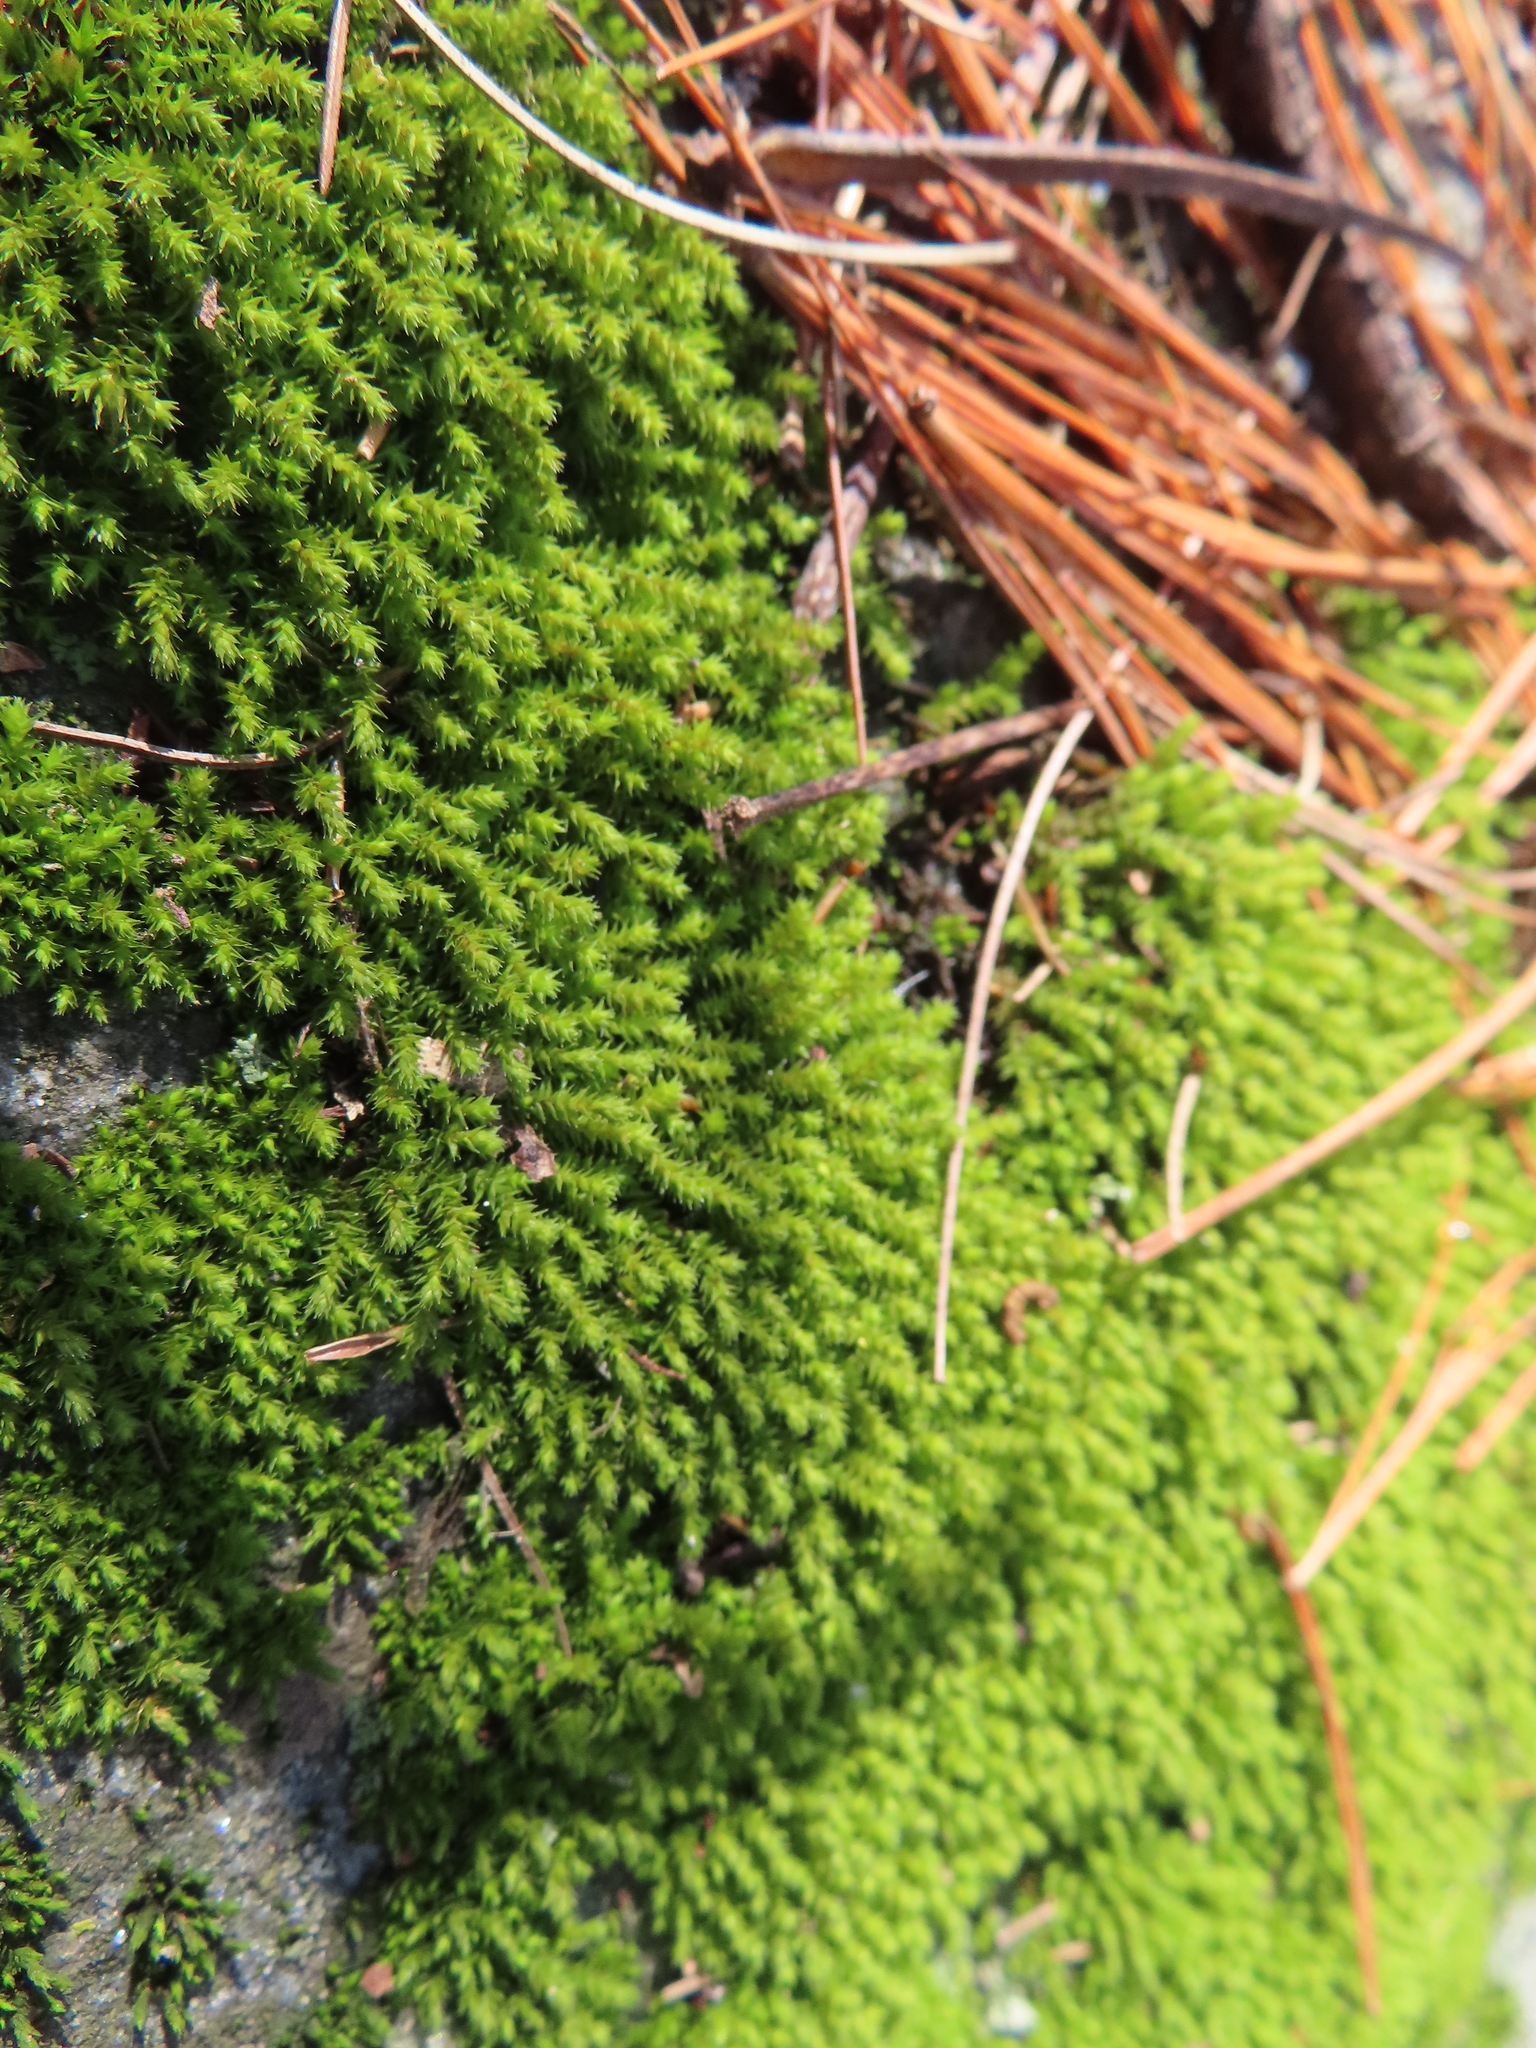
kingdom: Plantae
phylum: Bryophyta
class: Bryopsida
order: Hedwigiales
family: Hedwigiaceae
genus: Hedwigia
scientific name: Hedwigia ciliata
